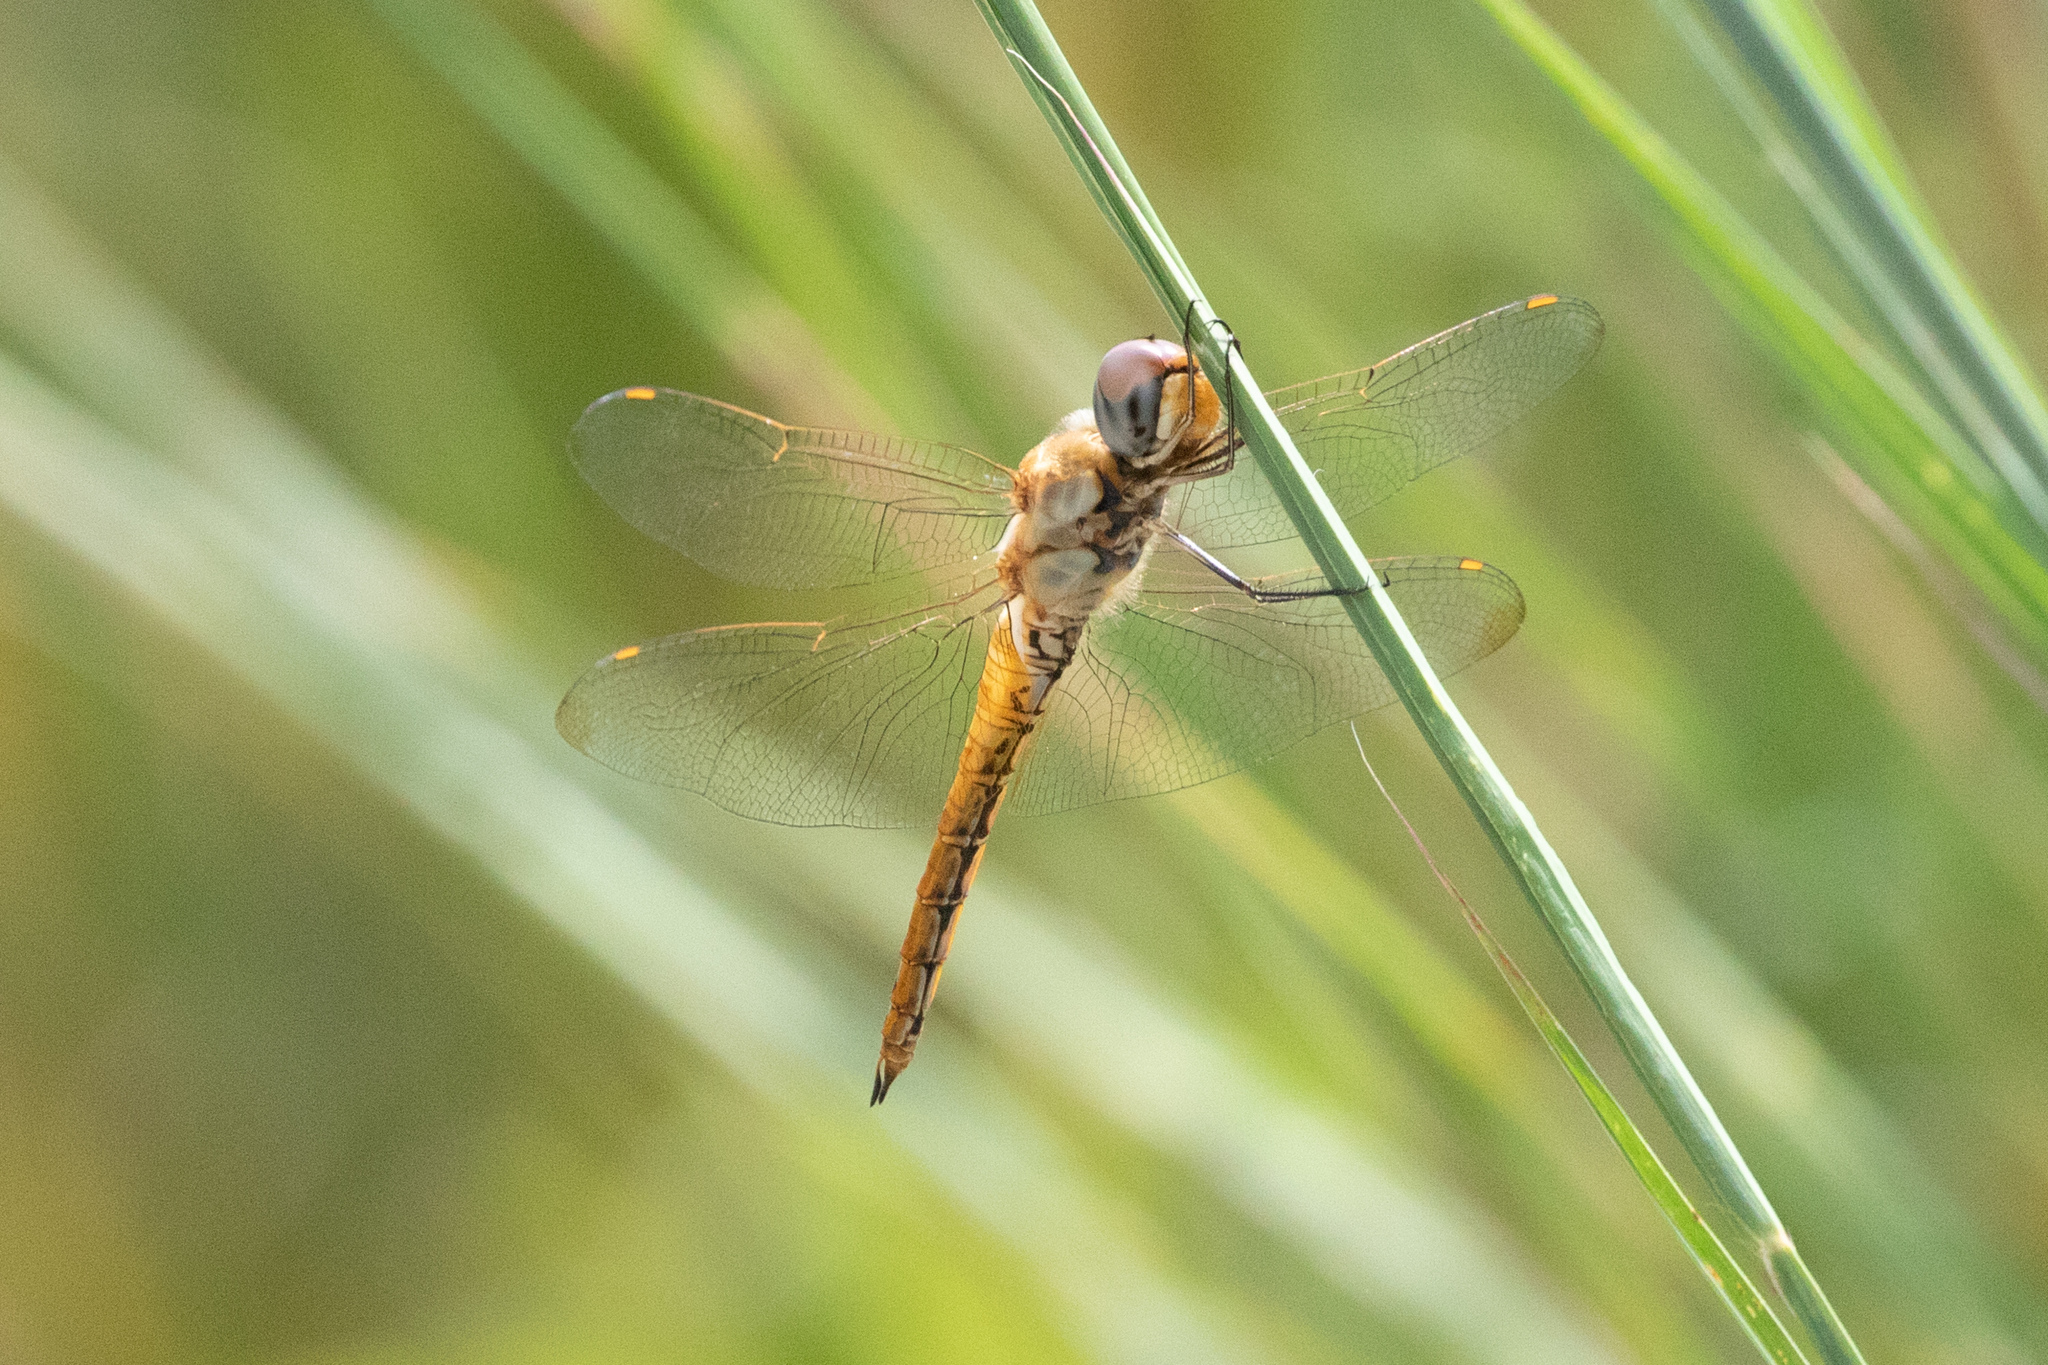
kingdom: Animalia
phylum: Arthropoda
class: Insecta
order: Odonata
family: Libellulidae
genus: Pantala
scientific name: Pantala flavescens
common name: Wandering glider
